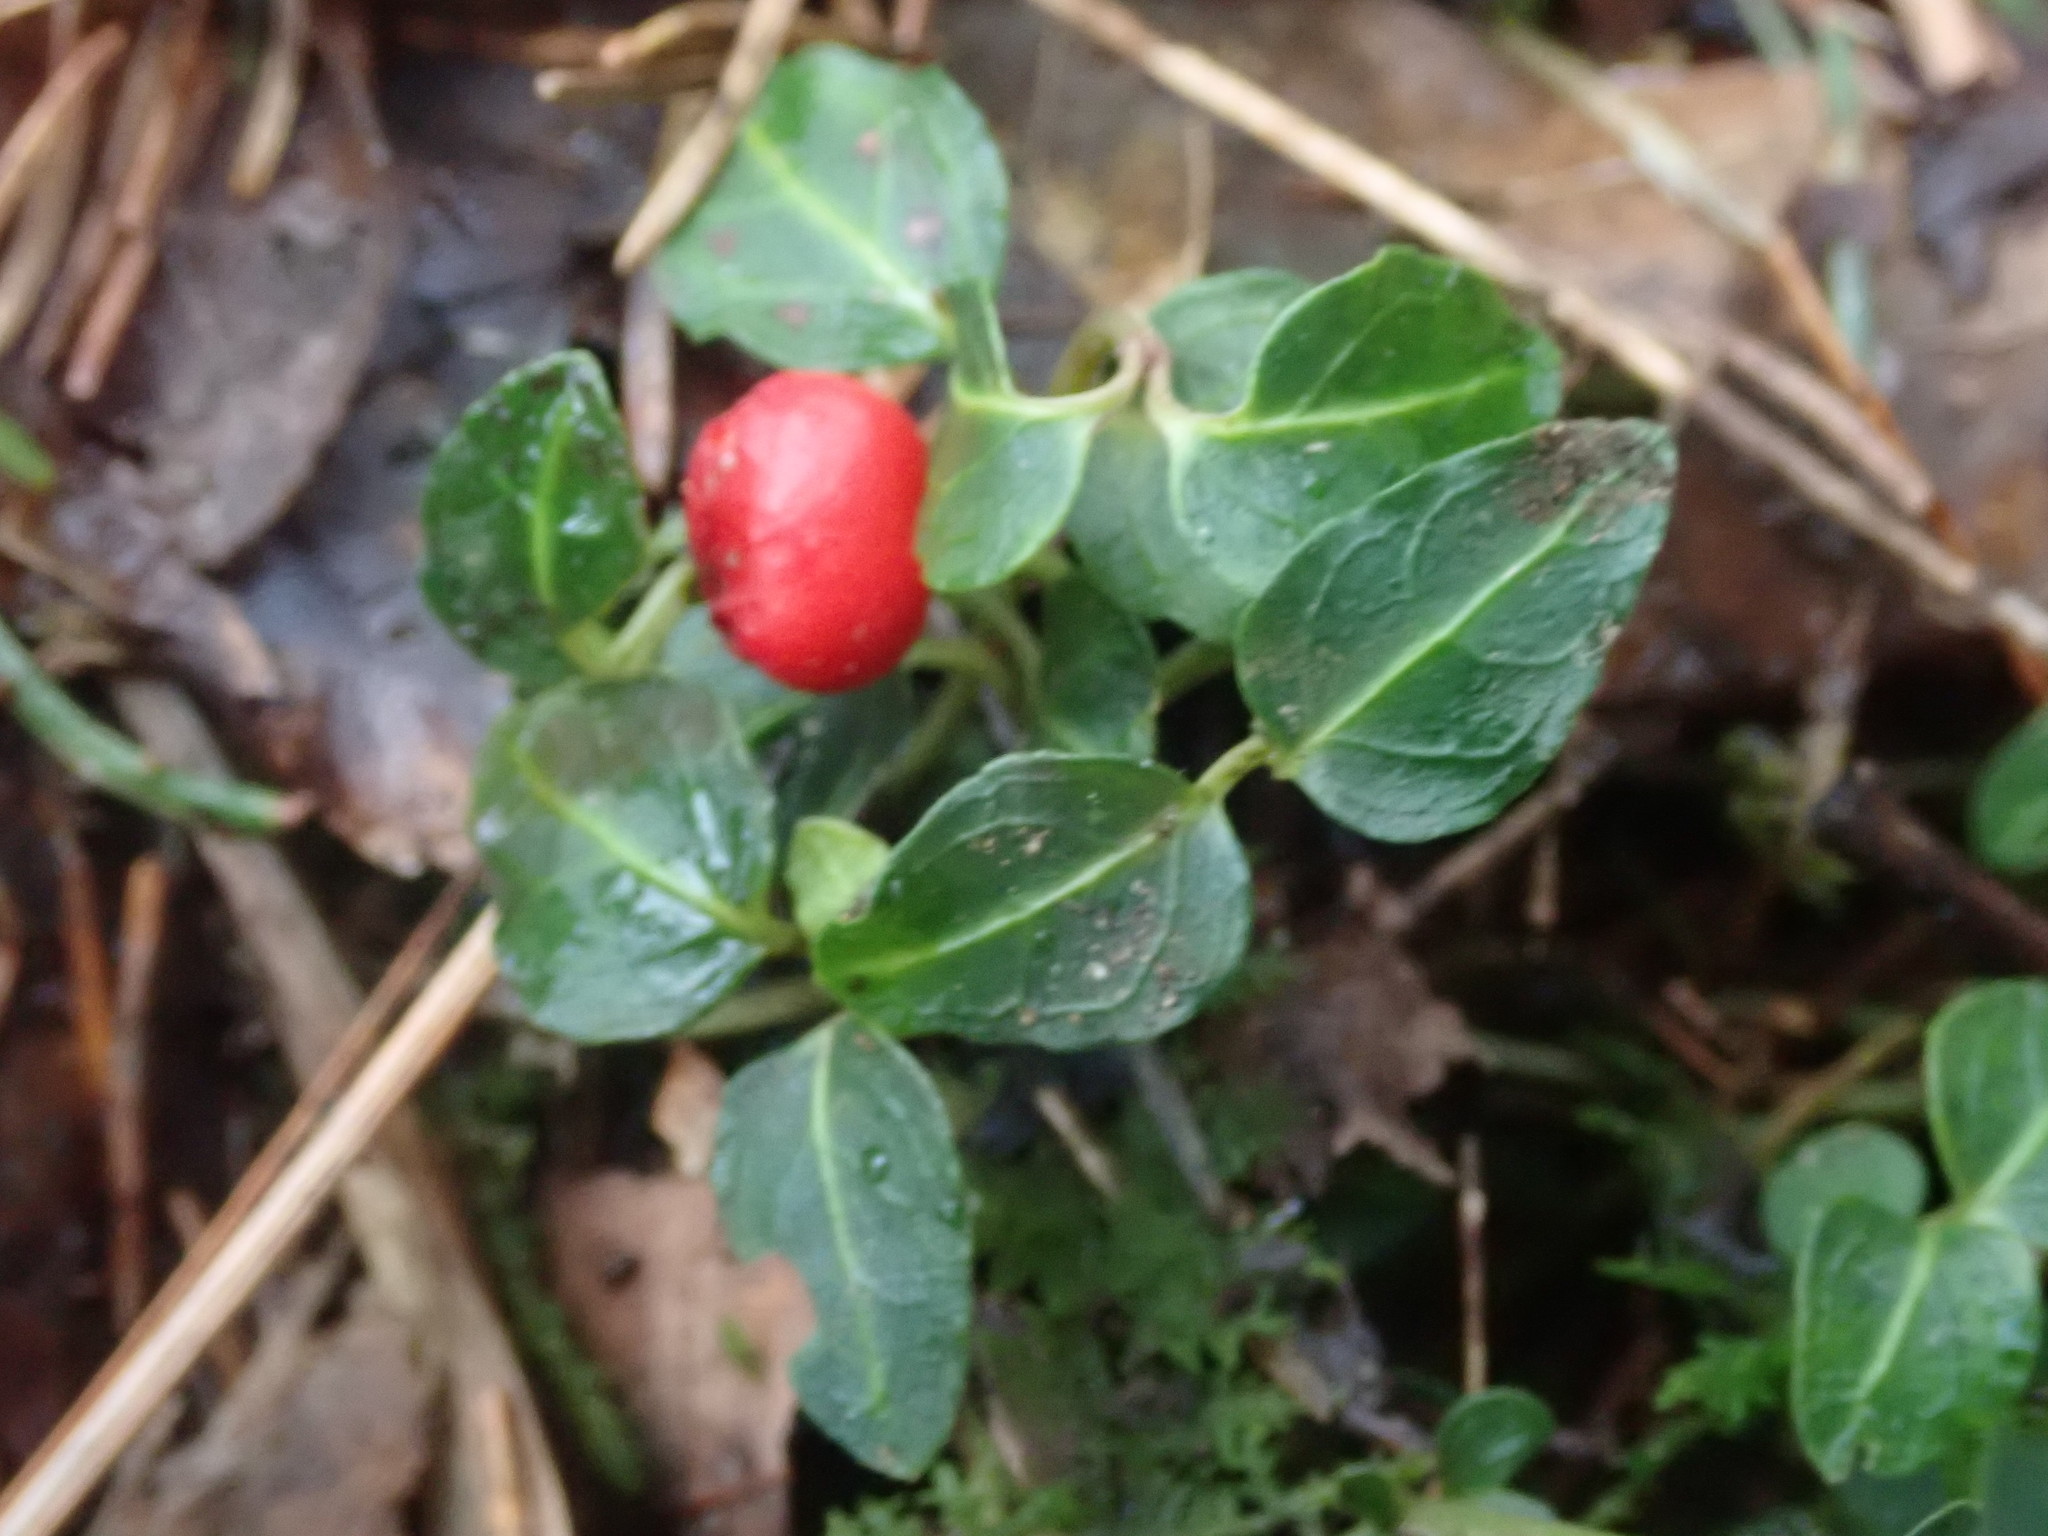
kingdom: Plantae
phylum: Tracheophyta
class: Magnoliopsida
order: Gentianales
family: Rubiaceae
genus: Mitchella
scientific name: Mitchella repens
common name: Partridge-berry
